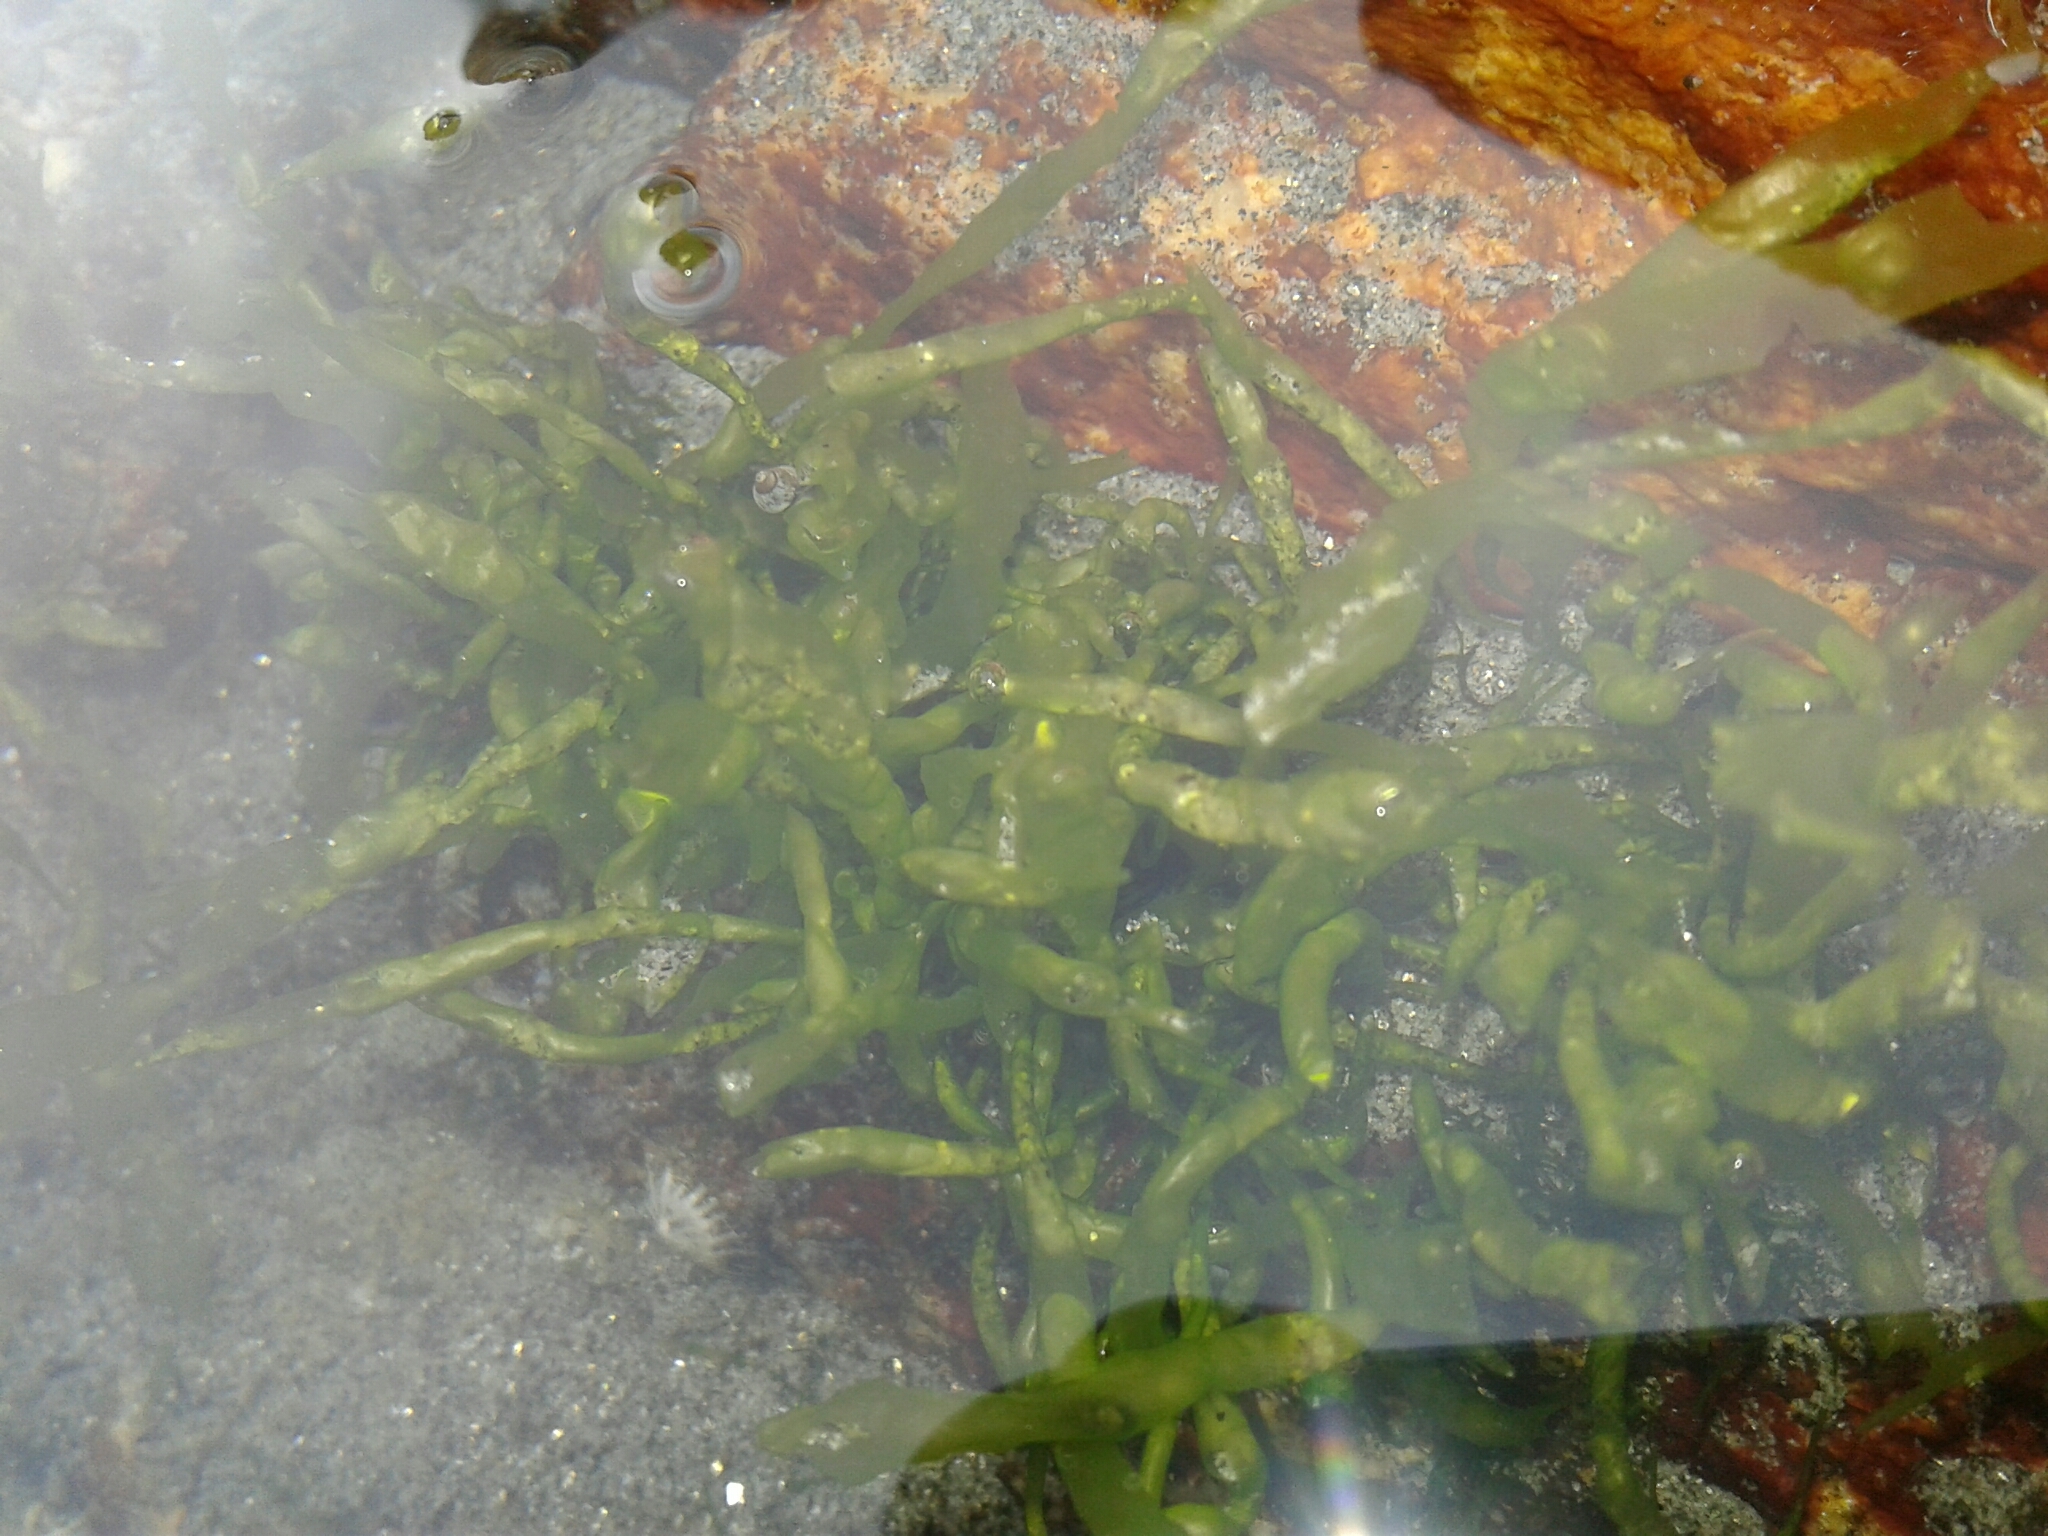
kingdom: Plantae
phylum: Chlorophyta
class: Ulvophyceae
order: Ulvales
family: Ulvaceae
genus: Ulva
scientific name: Ulva intestinalis
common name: Gut weed
